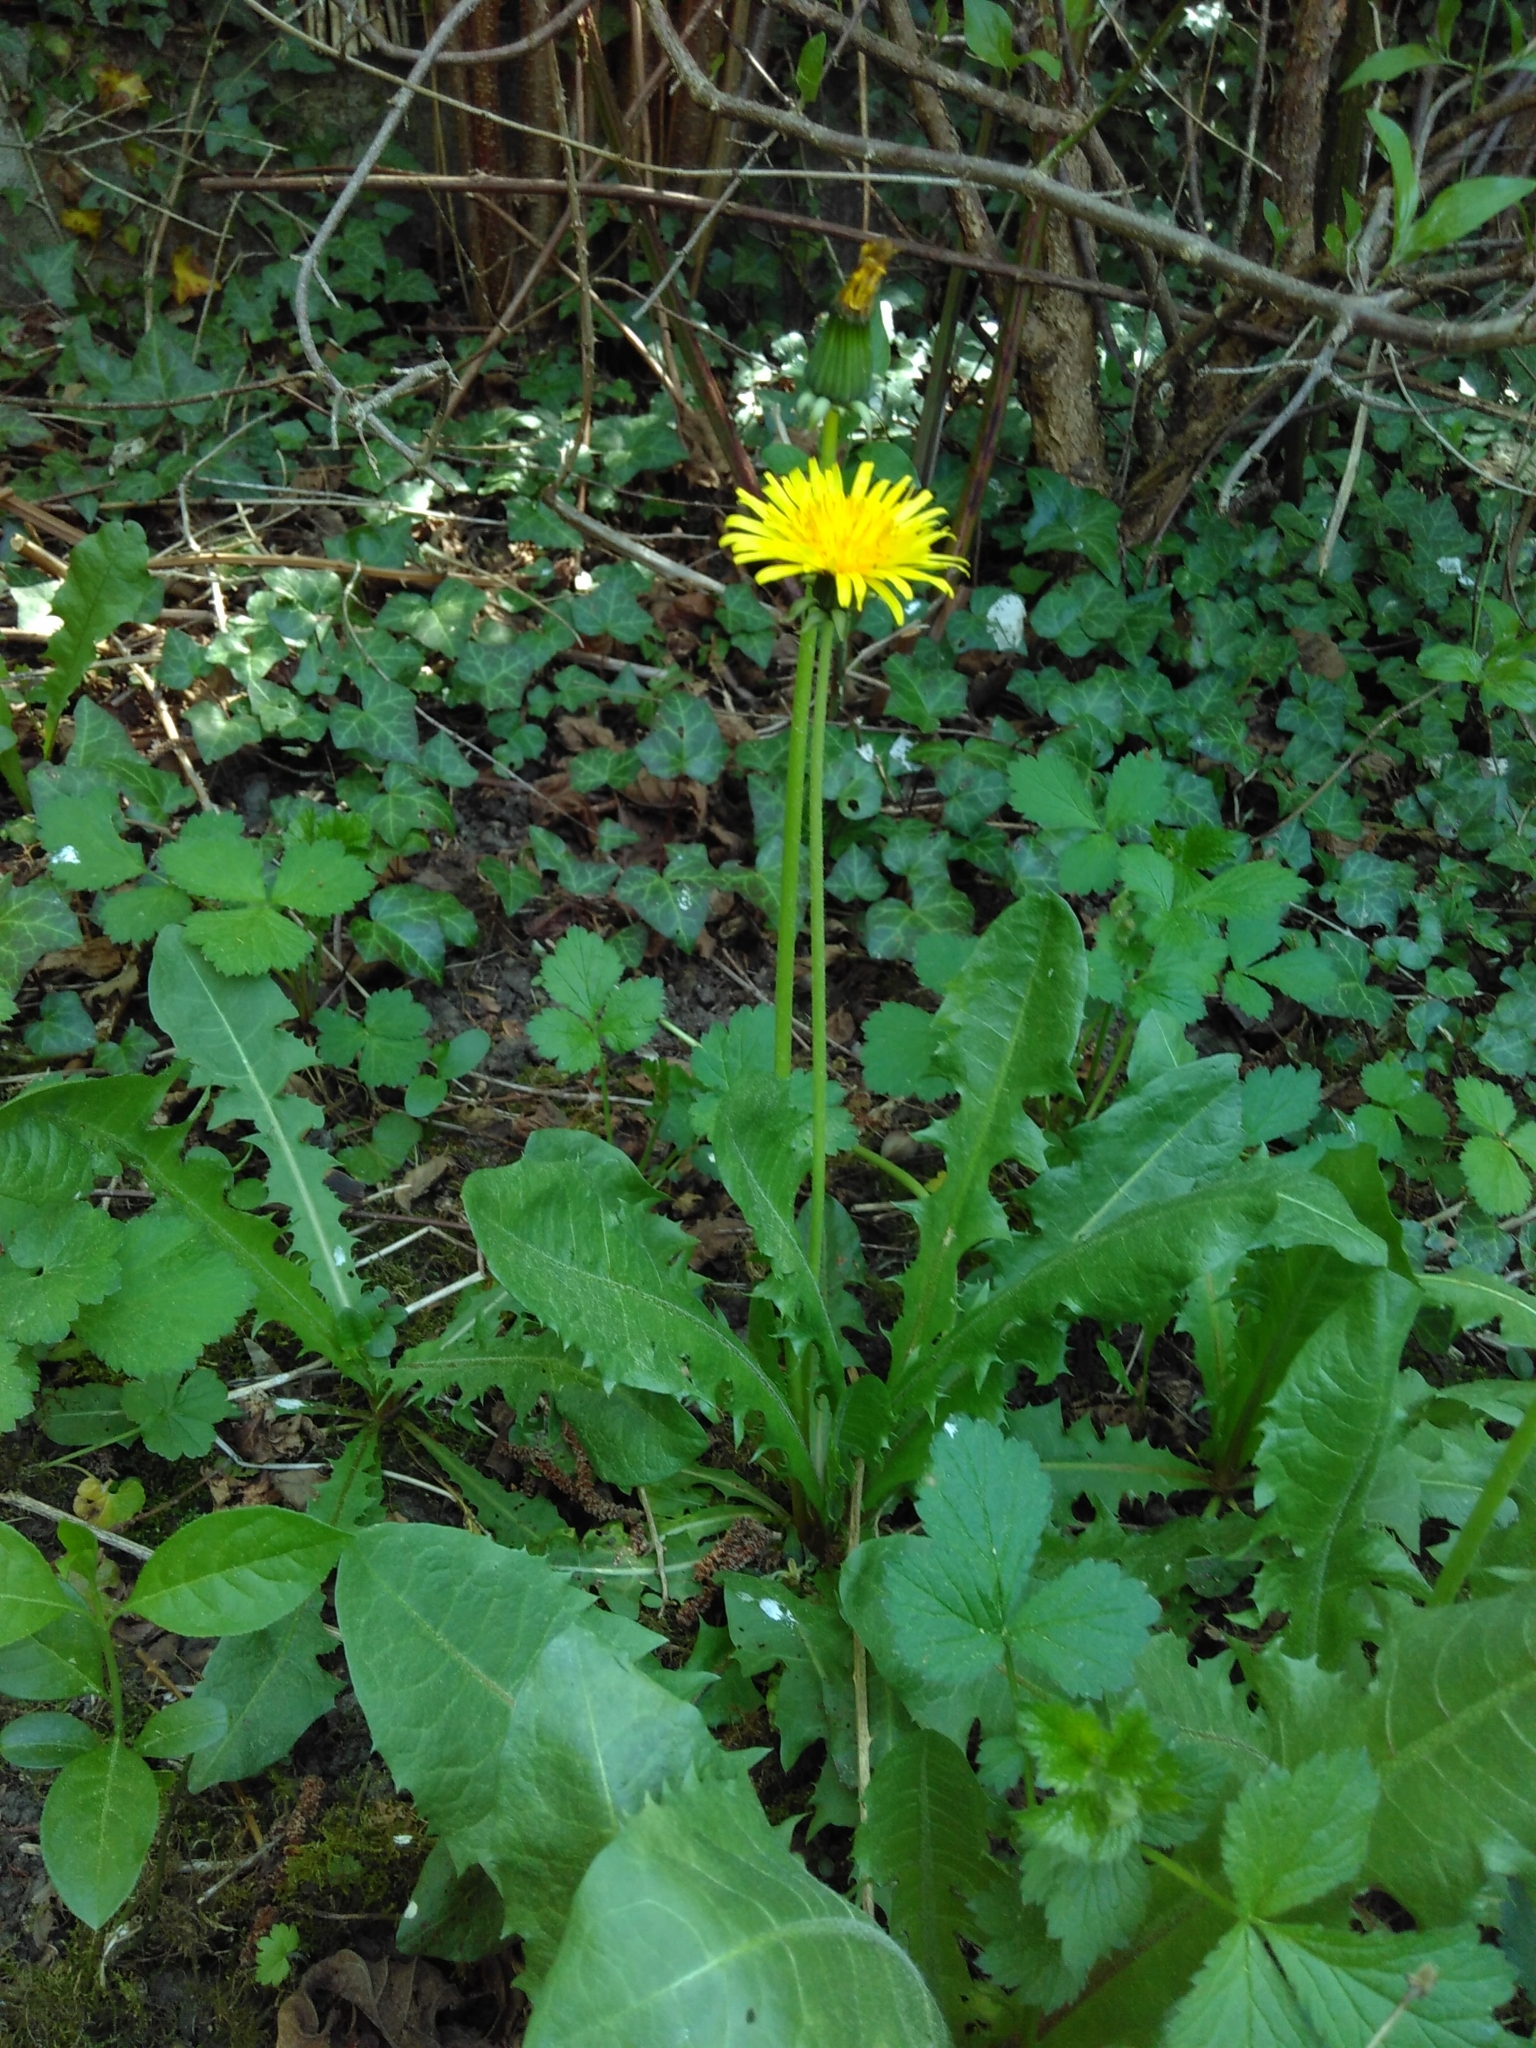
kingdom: Plantae
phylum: Tracheophyta
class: Magnoliopsida
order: Asterales
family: Asteraceae
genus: Taraxacum
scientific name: Taraxacum officinale
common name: Common dandelion
